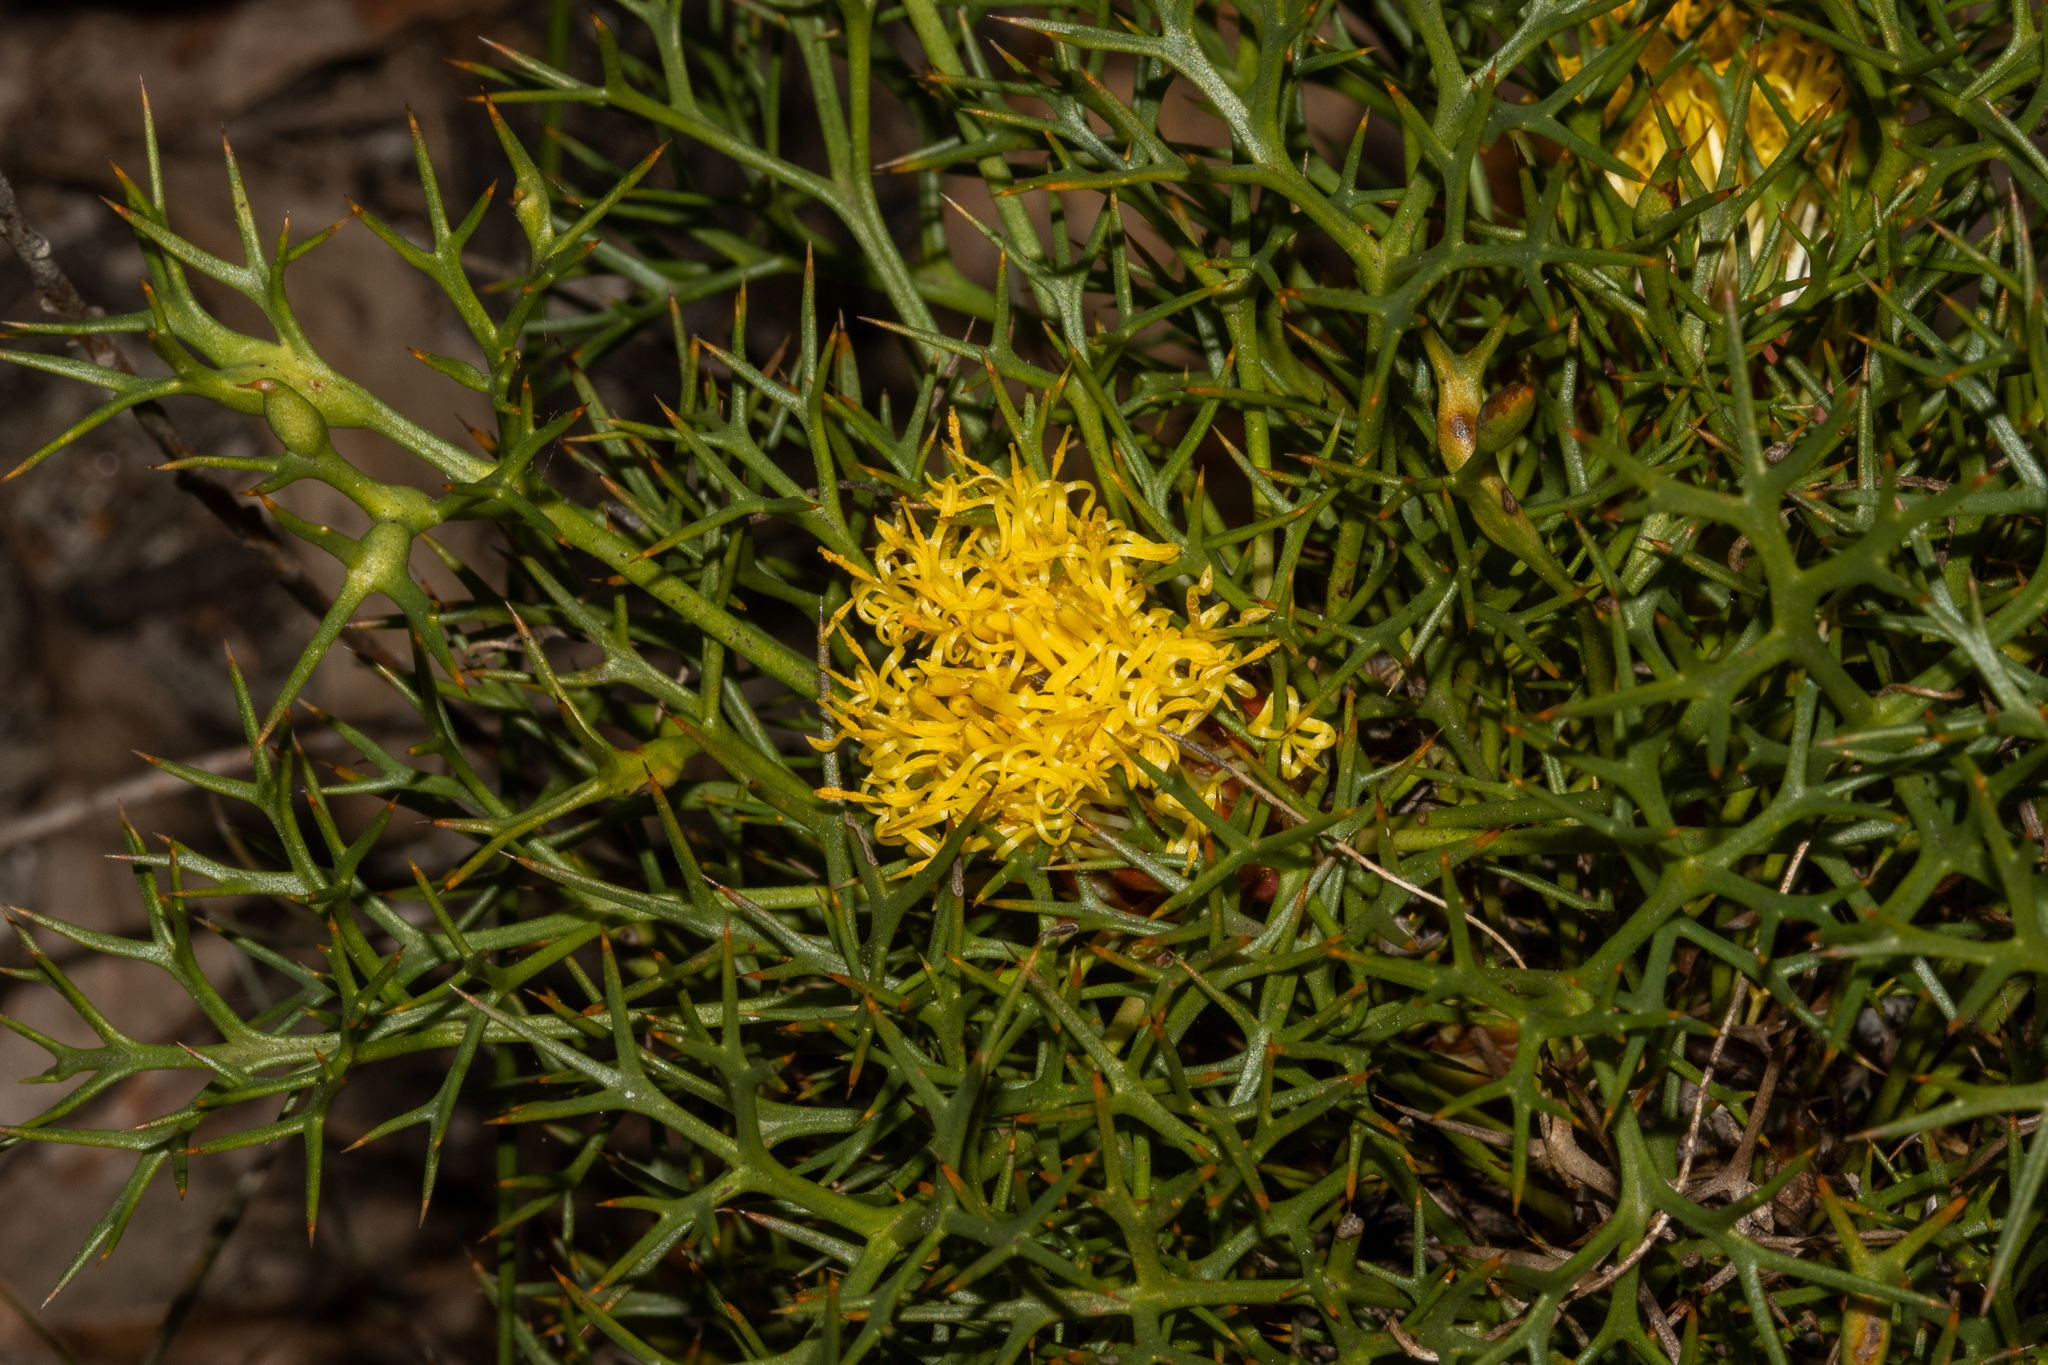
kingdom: Plantae
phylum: Tracheophyta
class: Magnoliopsida
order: Proteales
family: Proteaceae
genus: Isopogon
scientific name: Isopogon ceratophyllus
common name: Horny cone-bush
